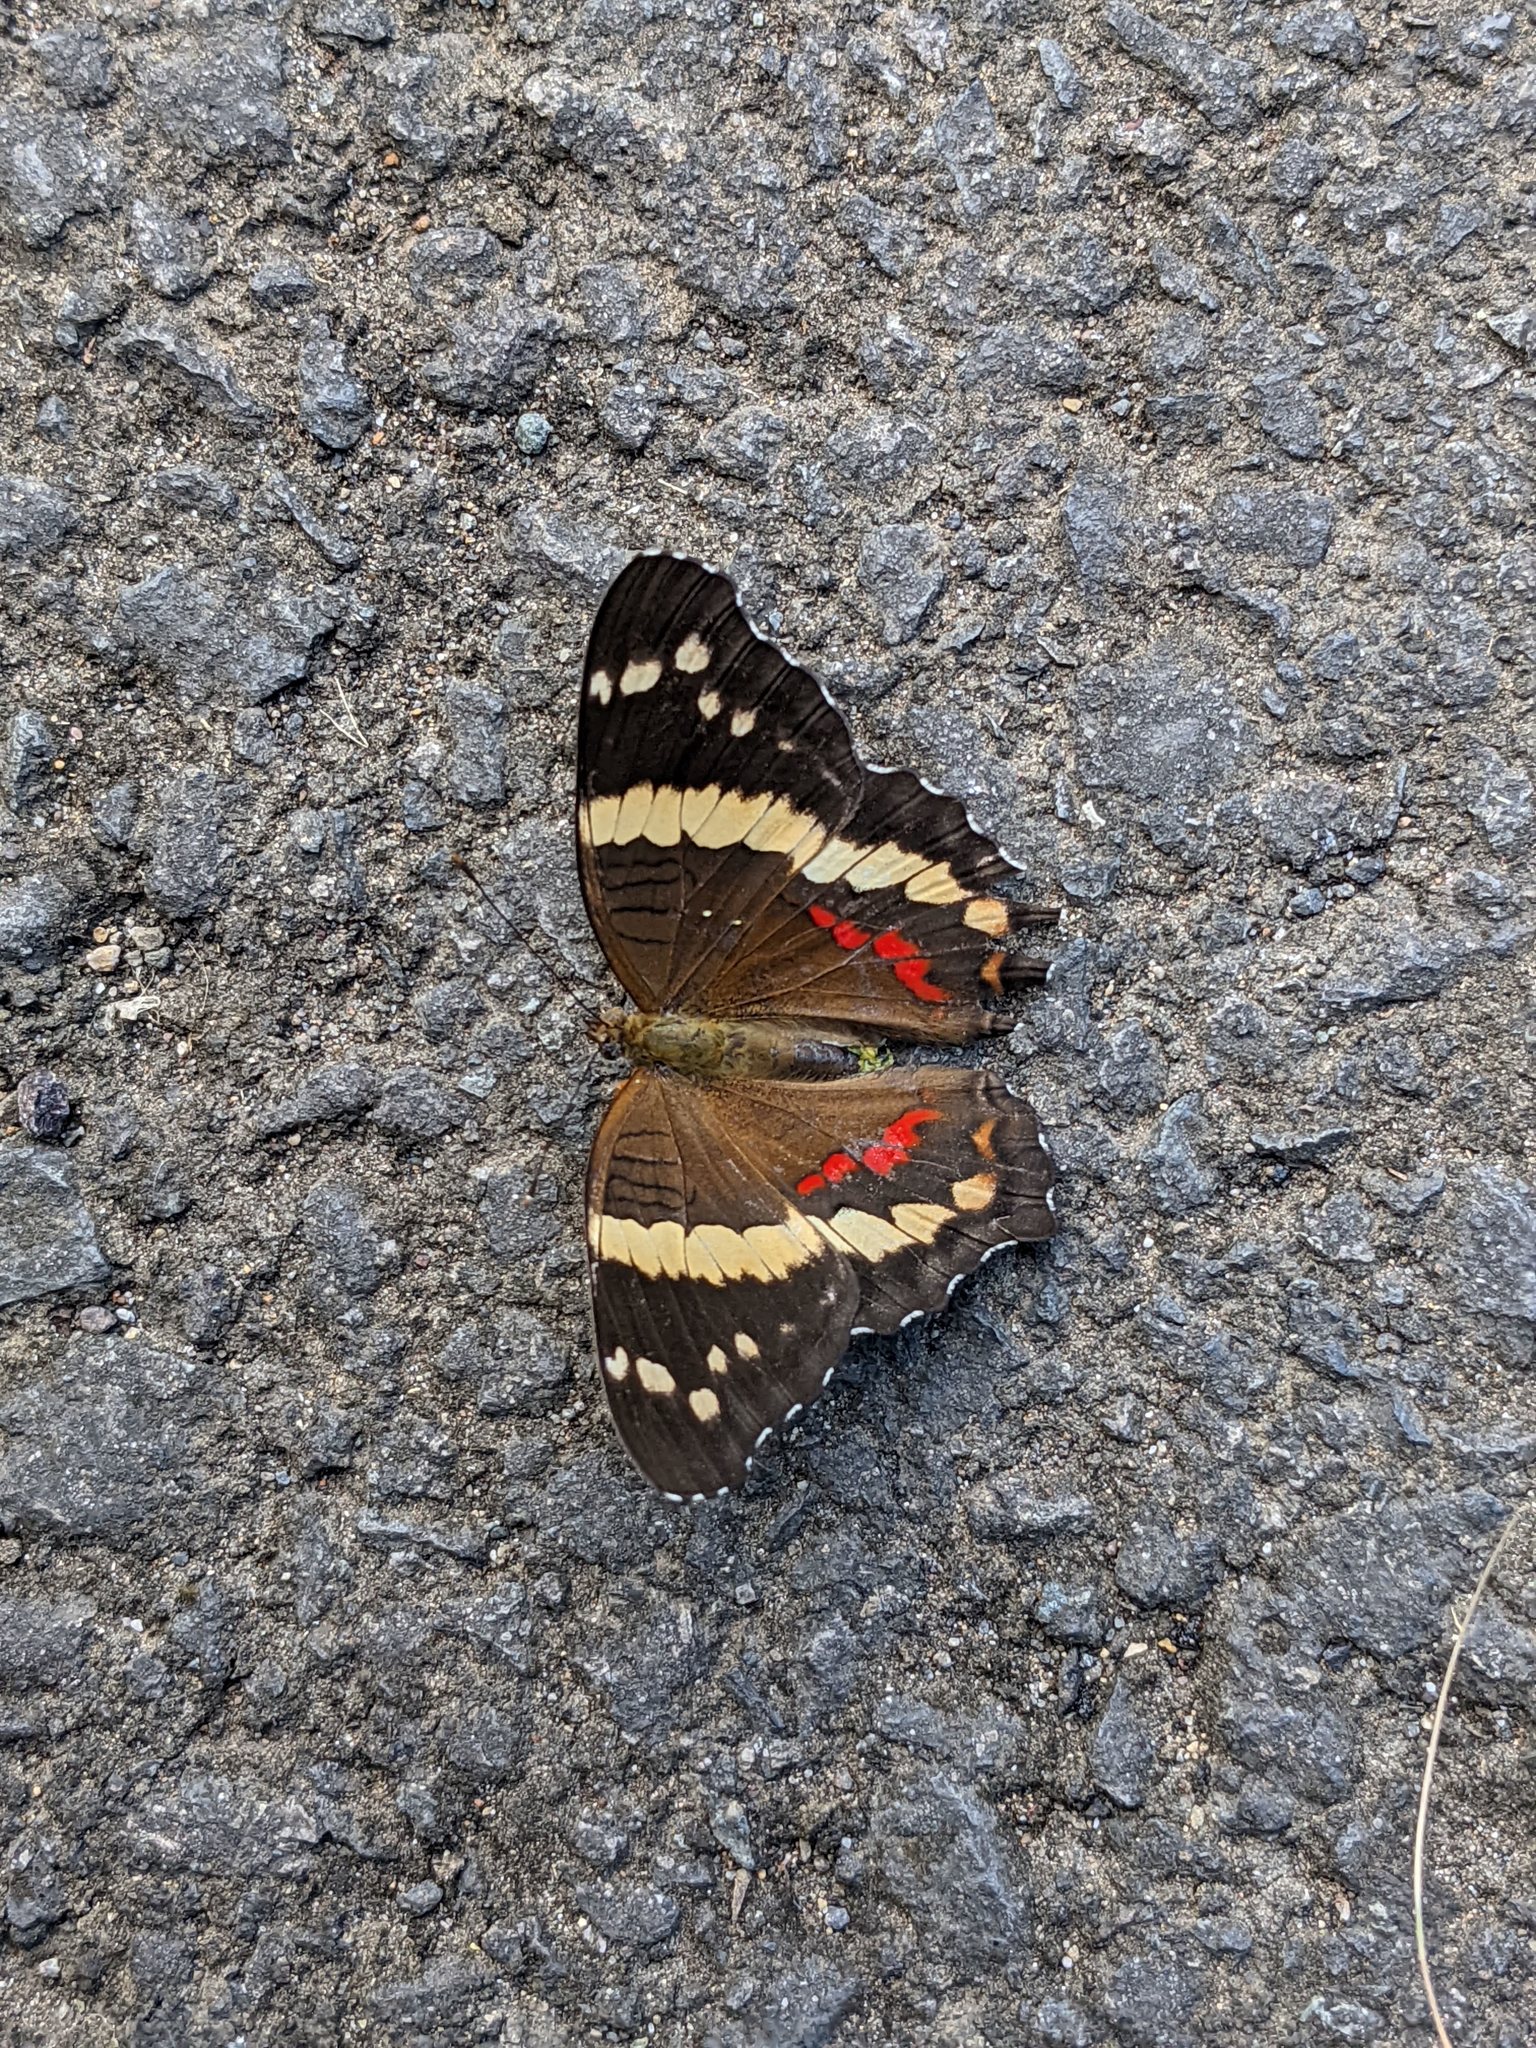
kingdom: Animalia
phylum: Arthropoda
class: Insecta
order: Lepidoptera
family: Nymphalidae
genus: Anartia
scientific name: Anartia fatima
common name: Banded peacock
